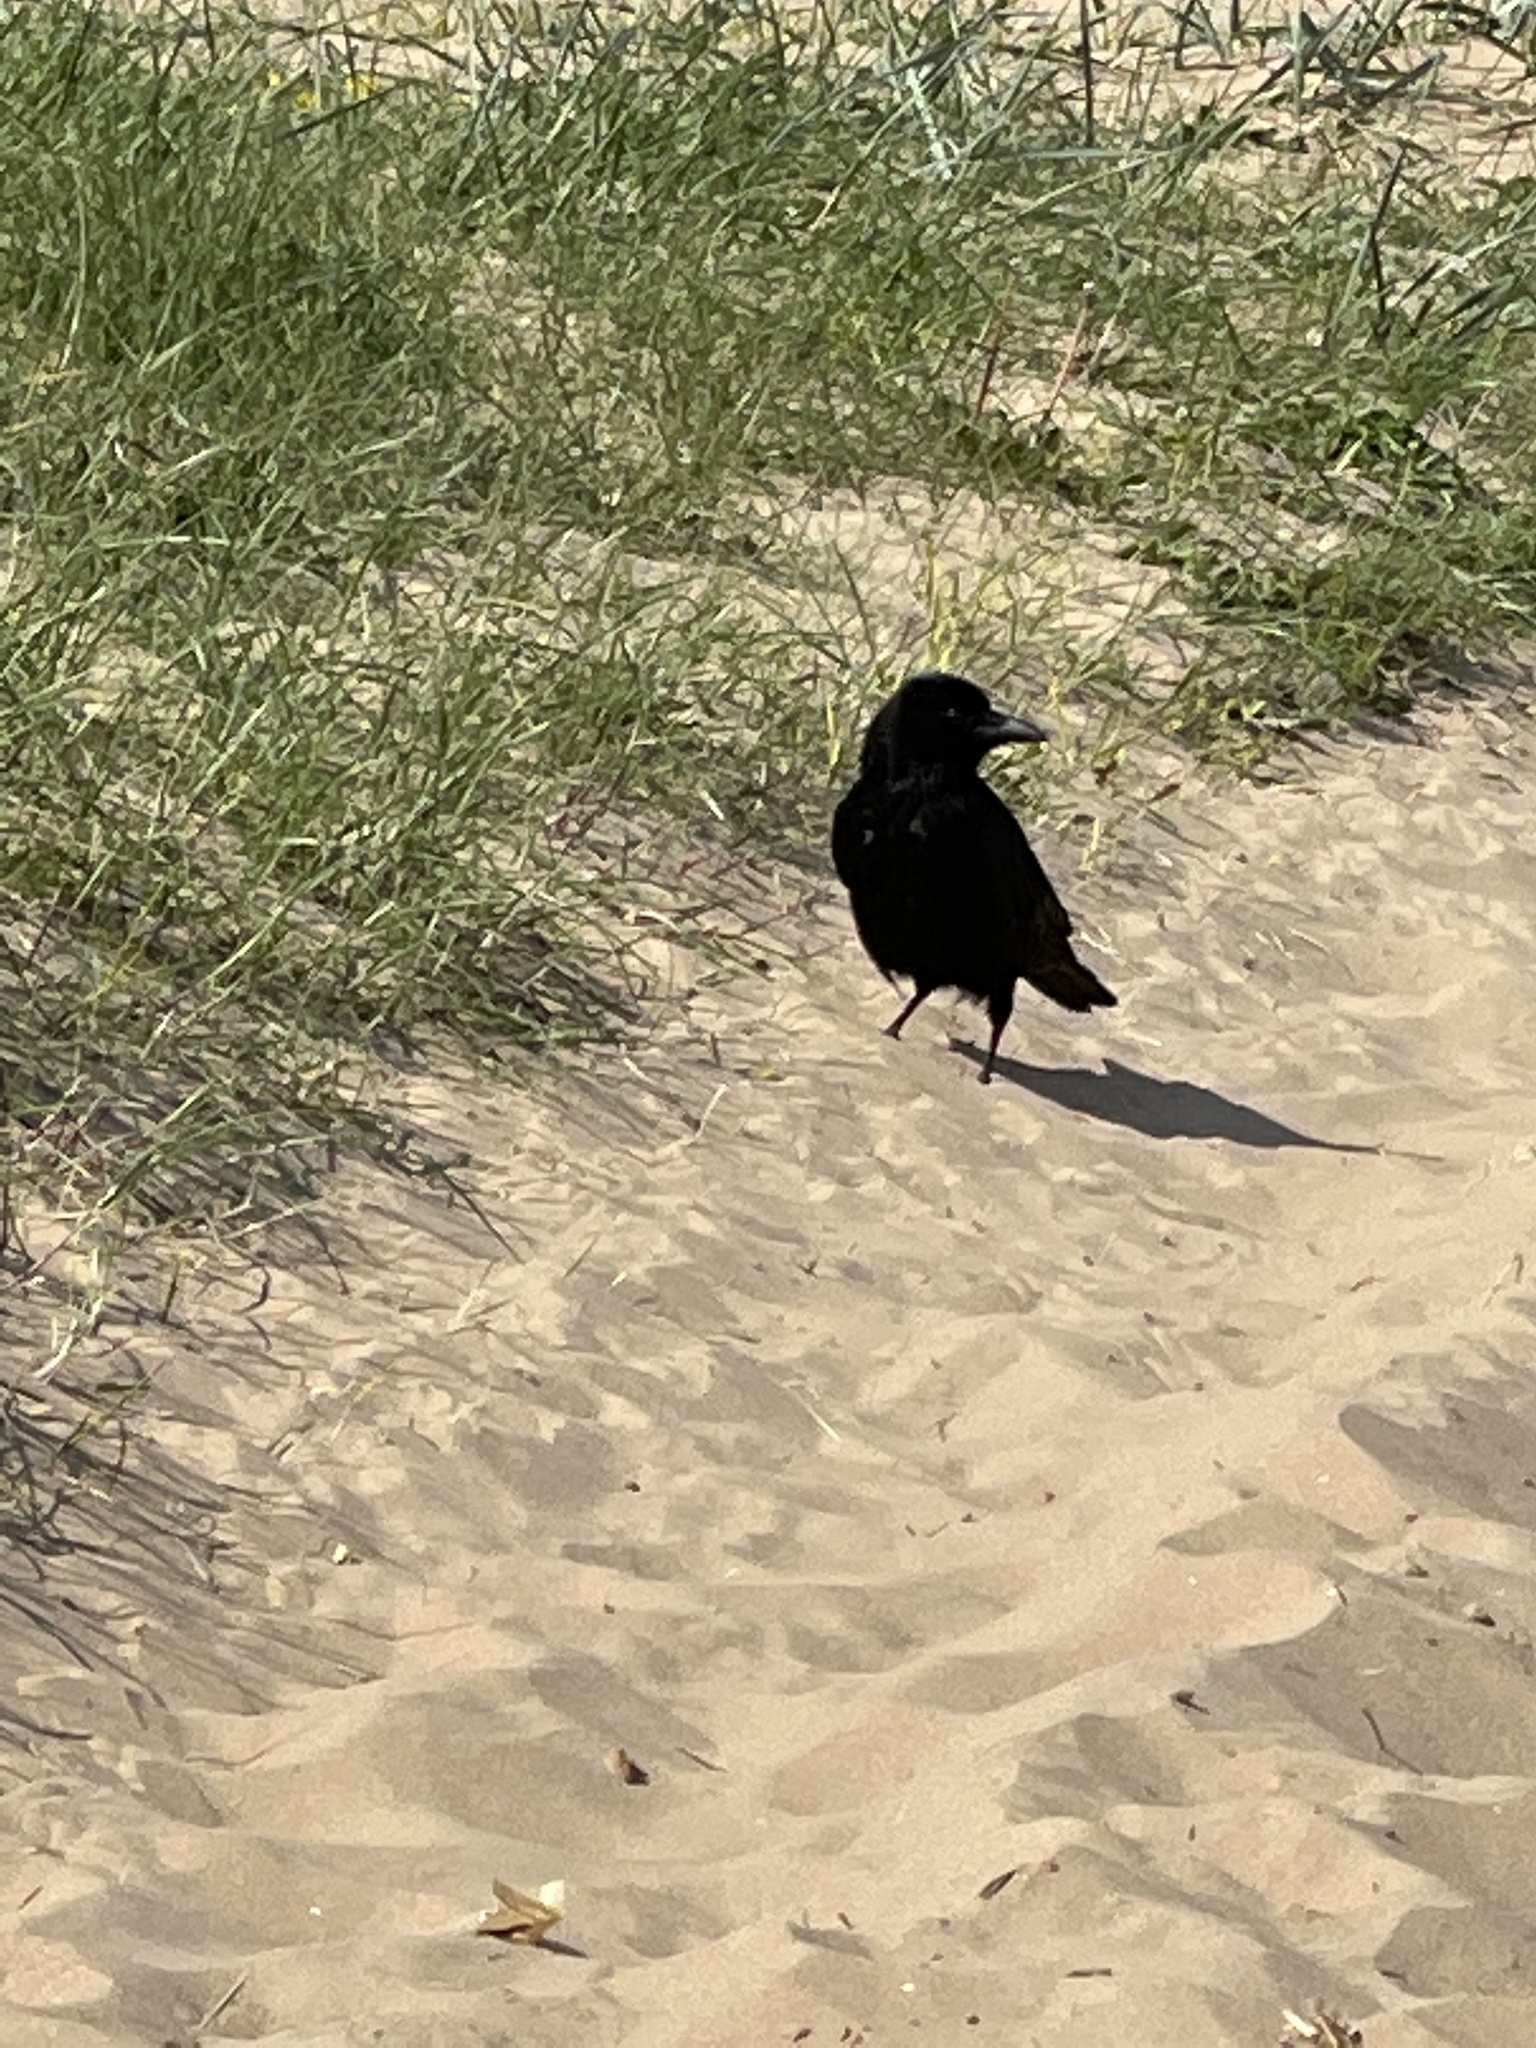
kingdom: Animalia
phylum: Chordata
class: Aves
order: Passeriformes
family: Corvidae
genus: Corvus
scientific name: Corvus corone
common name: Carrion crow
